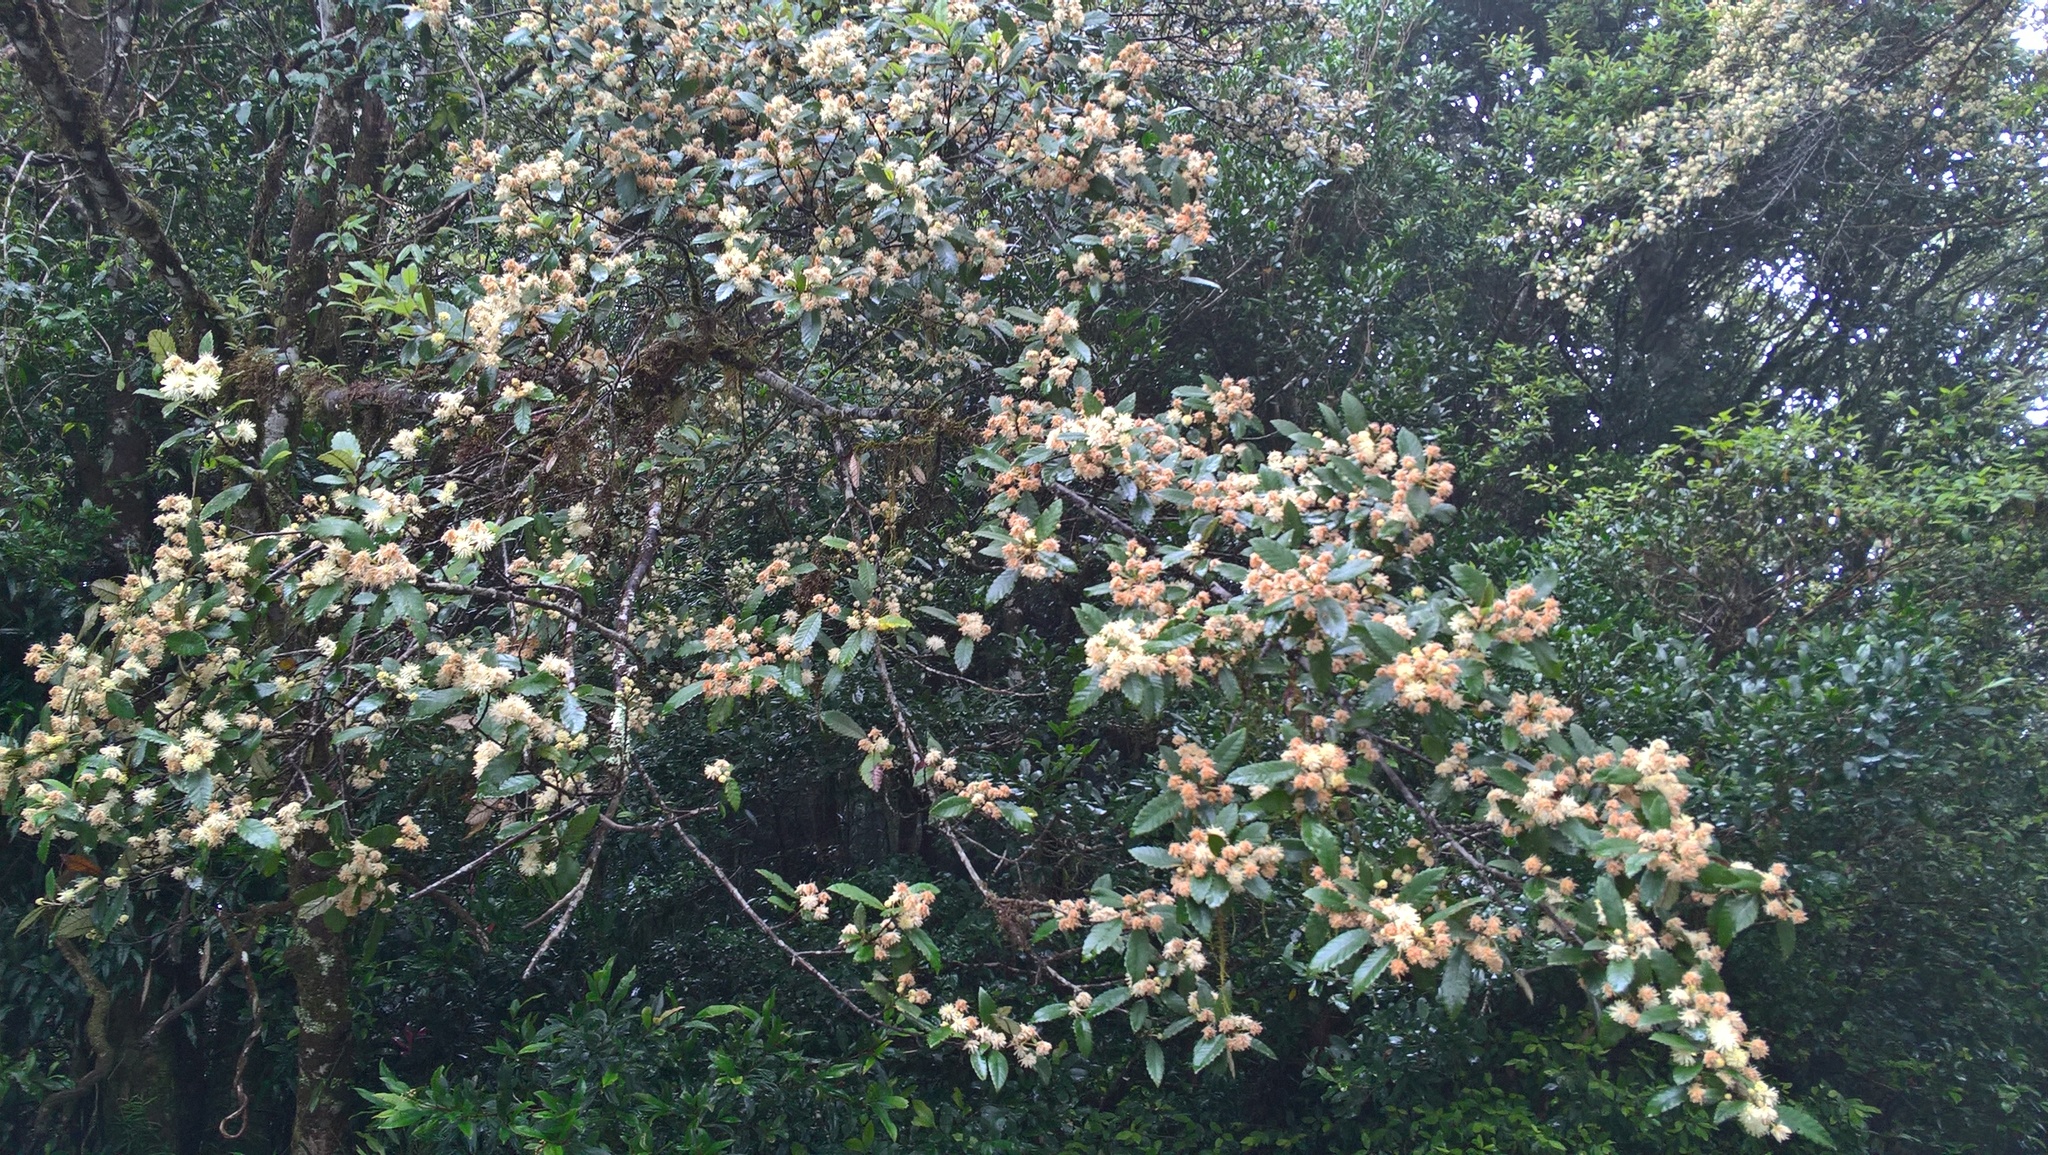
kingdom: Plantae
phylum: Tracheophyta
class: Magnoliopsida
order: Oxalidales
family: Cunoniaceae
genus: Callicoma
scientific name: Callicoma serratifolia
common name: Black wattle
